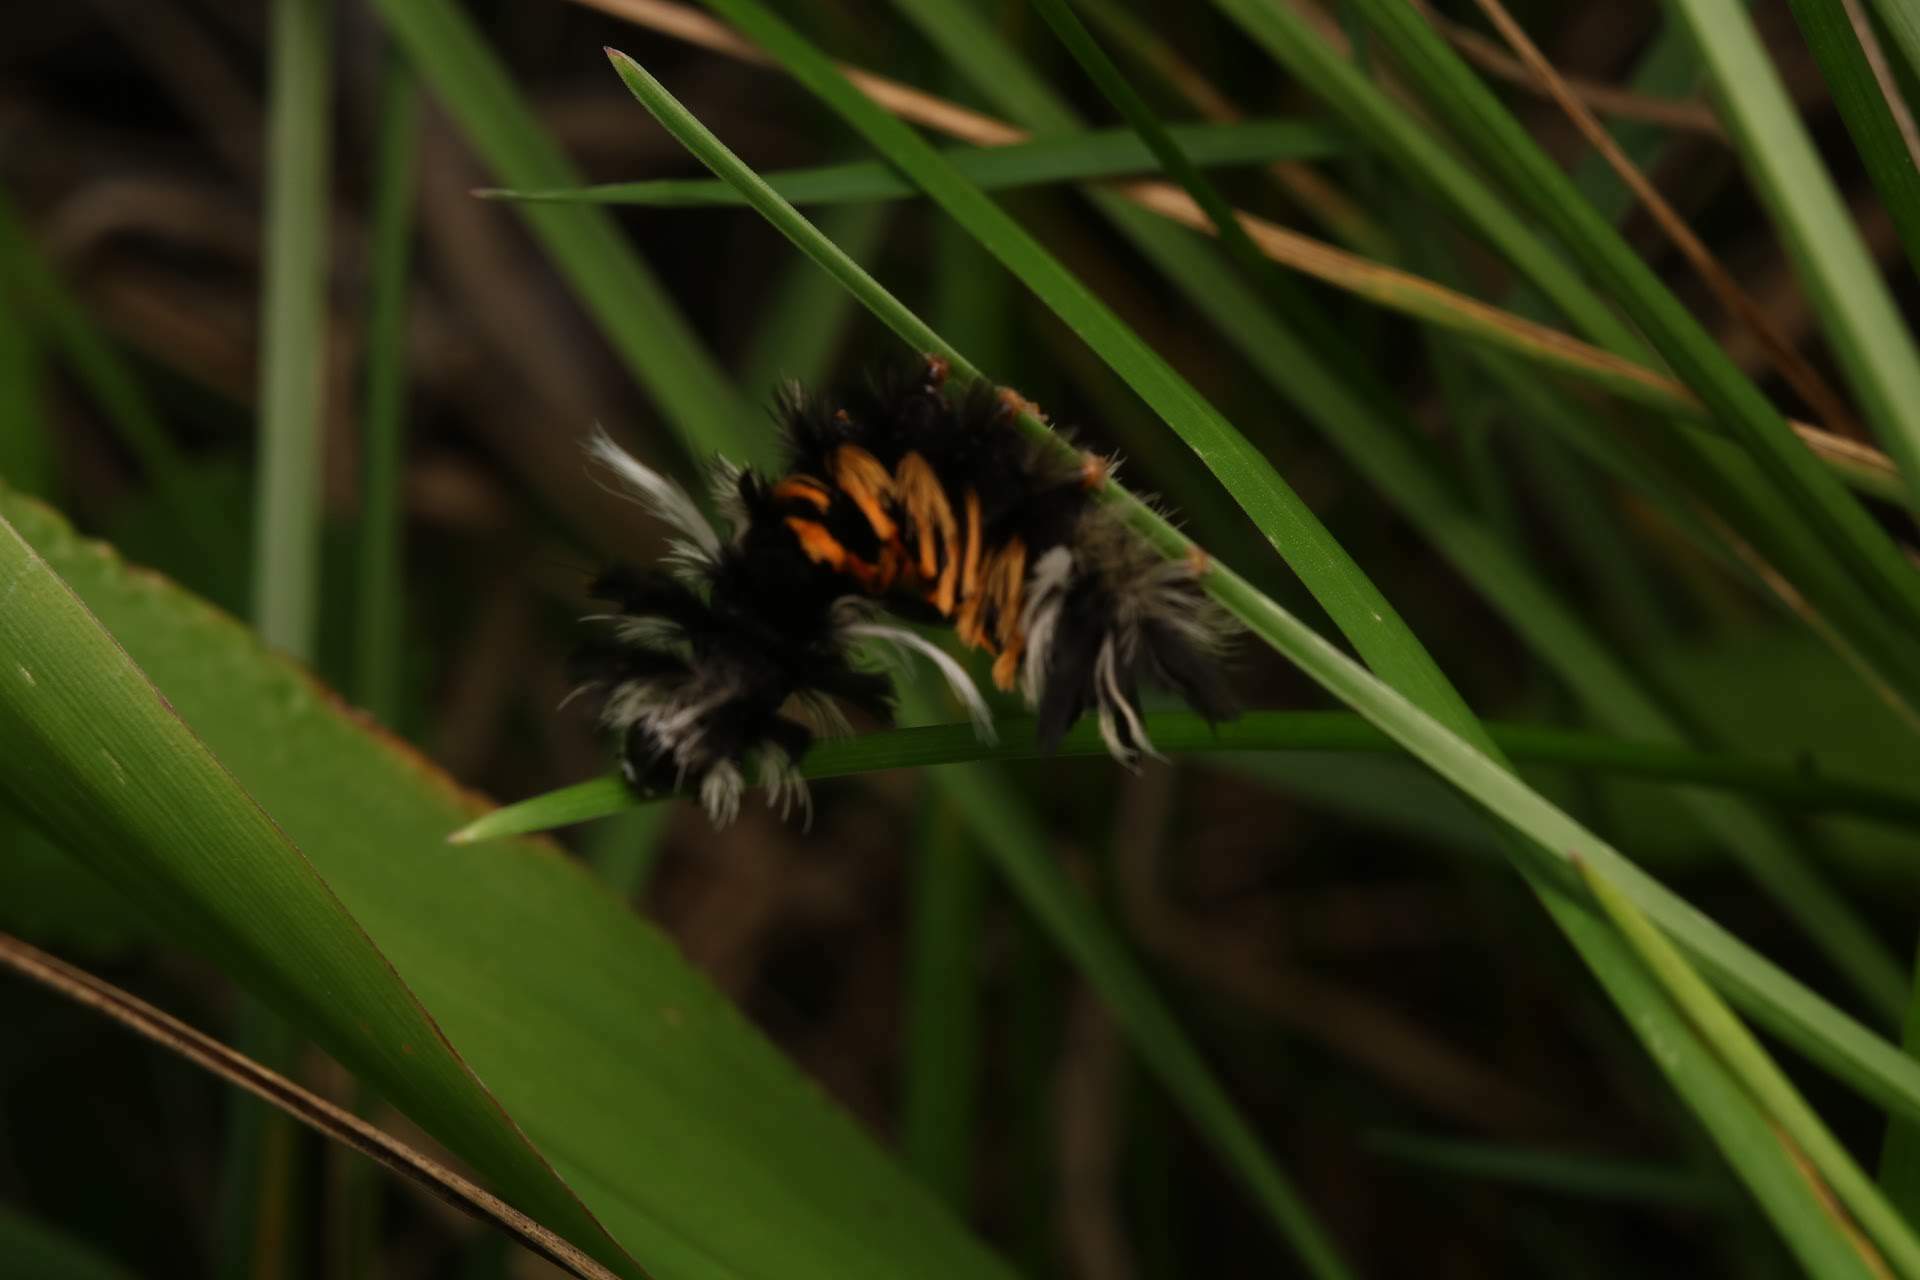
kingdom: Animalia
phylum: Arthropoda
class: Insecta
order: Lepidoptera
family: Erebidae
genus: Euchaetes
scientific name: Euchaetes egle
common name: Milkweed tussock moth
